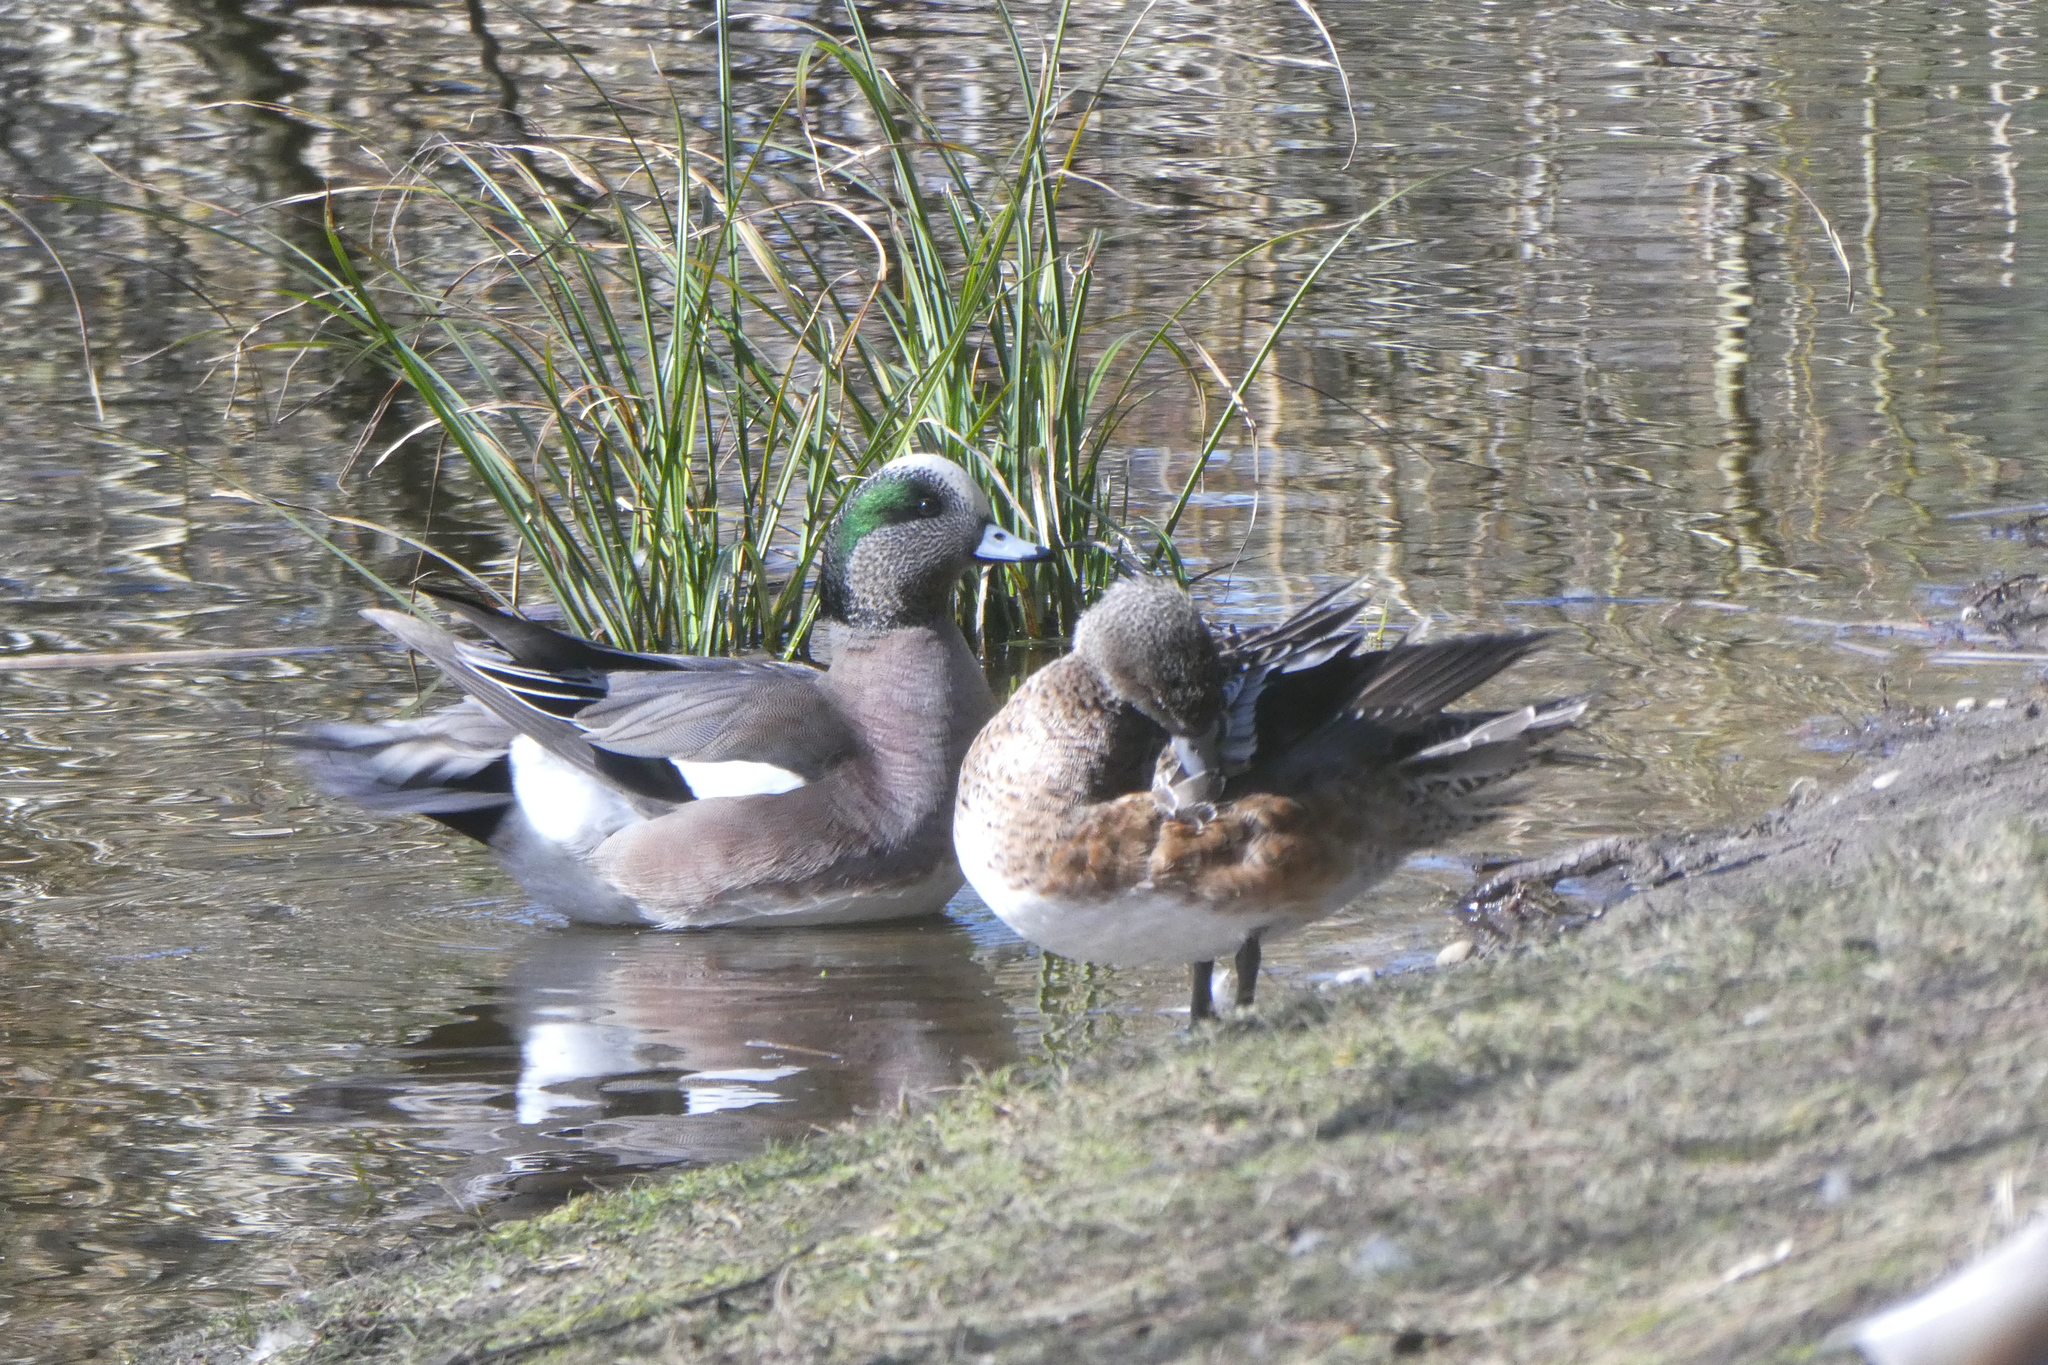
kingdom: Animalia
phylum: Chordata
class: Aves
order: Anseriformes
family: Anatidae
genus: Mareca
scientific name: Mareca americana
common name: American wigeon
